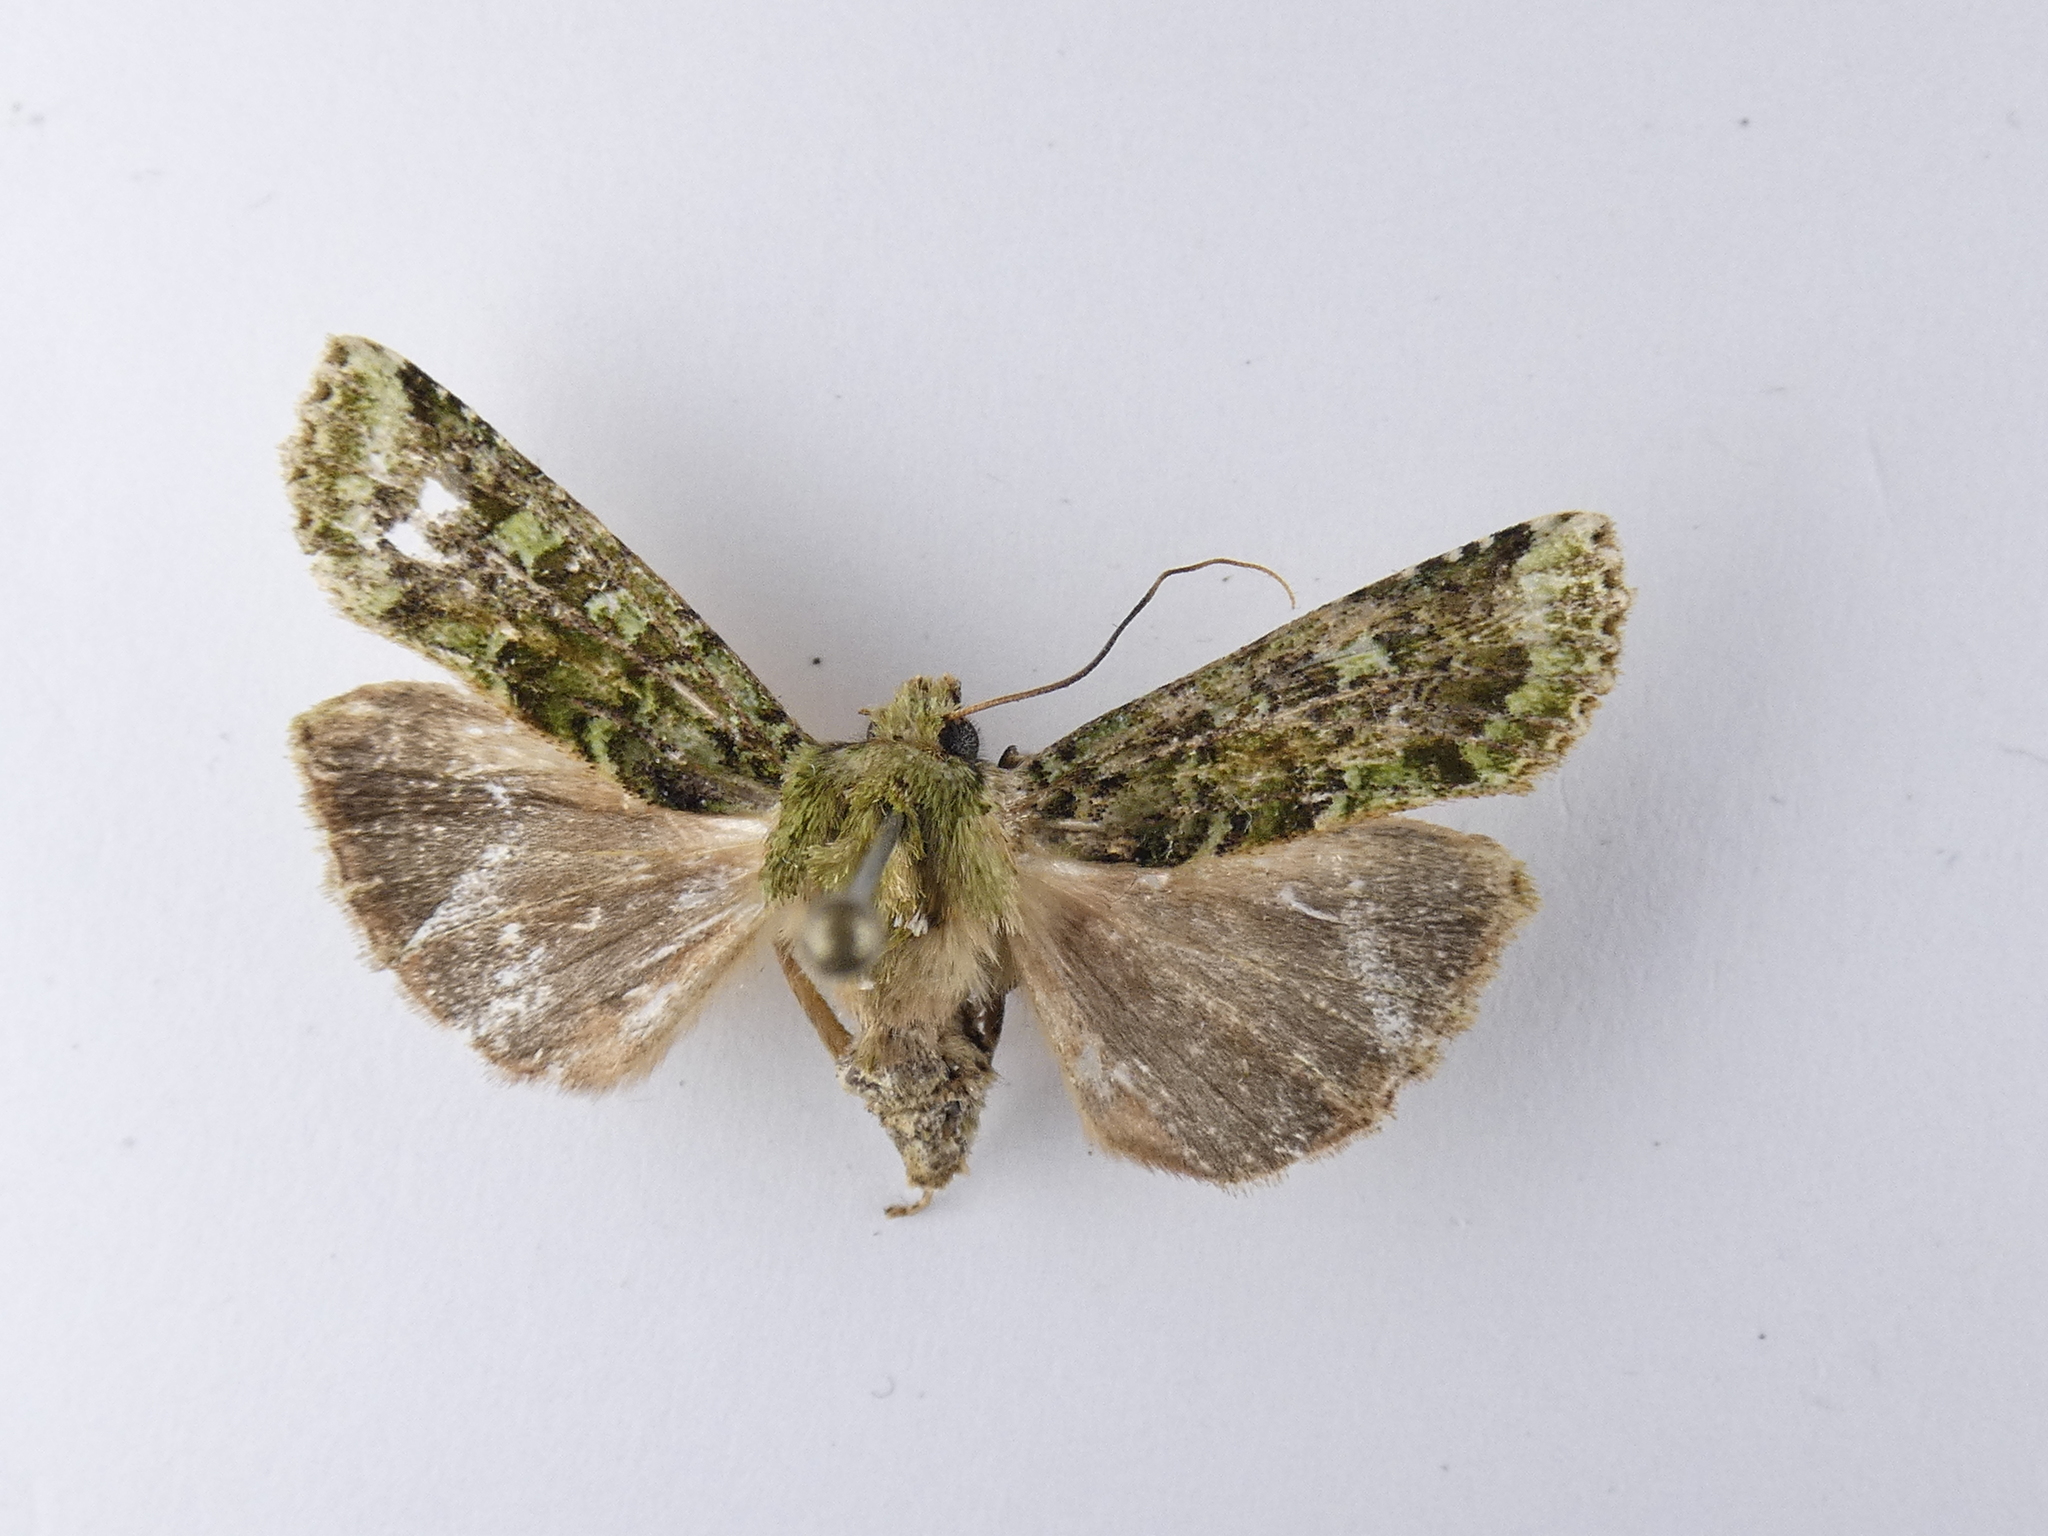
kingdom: Animalia
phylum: Arthropoda
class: Insecta
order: Lepidoptera
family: Noctuidae
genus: Feredayia
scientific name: Feredayia grammosa
